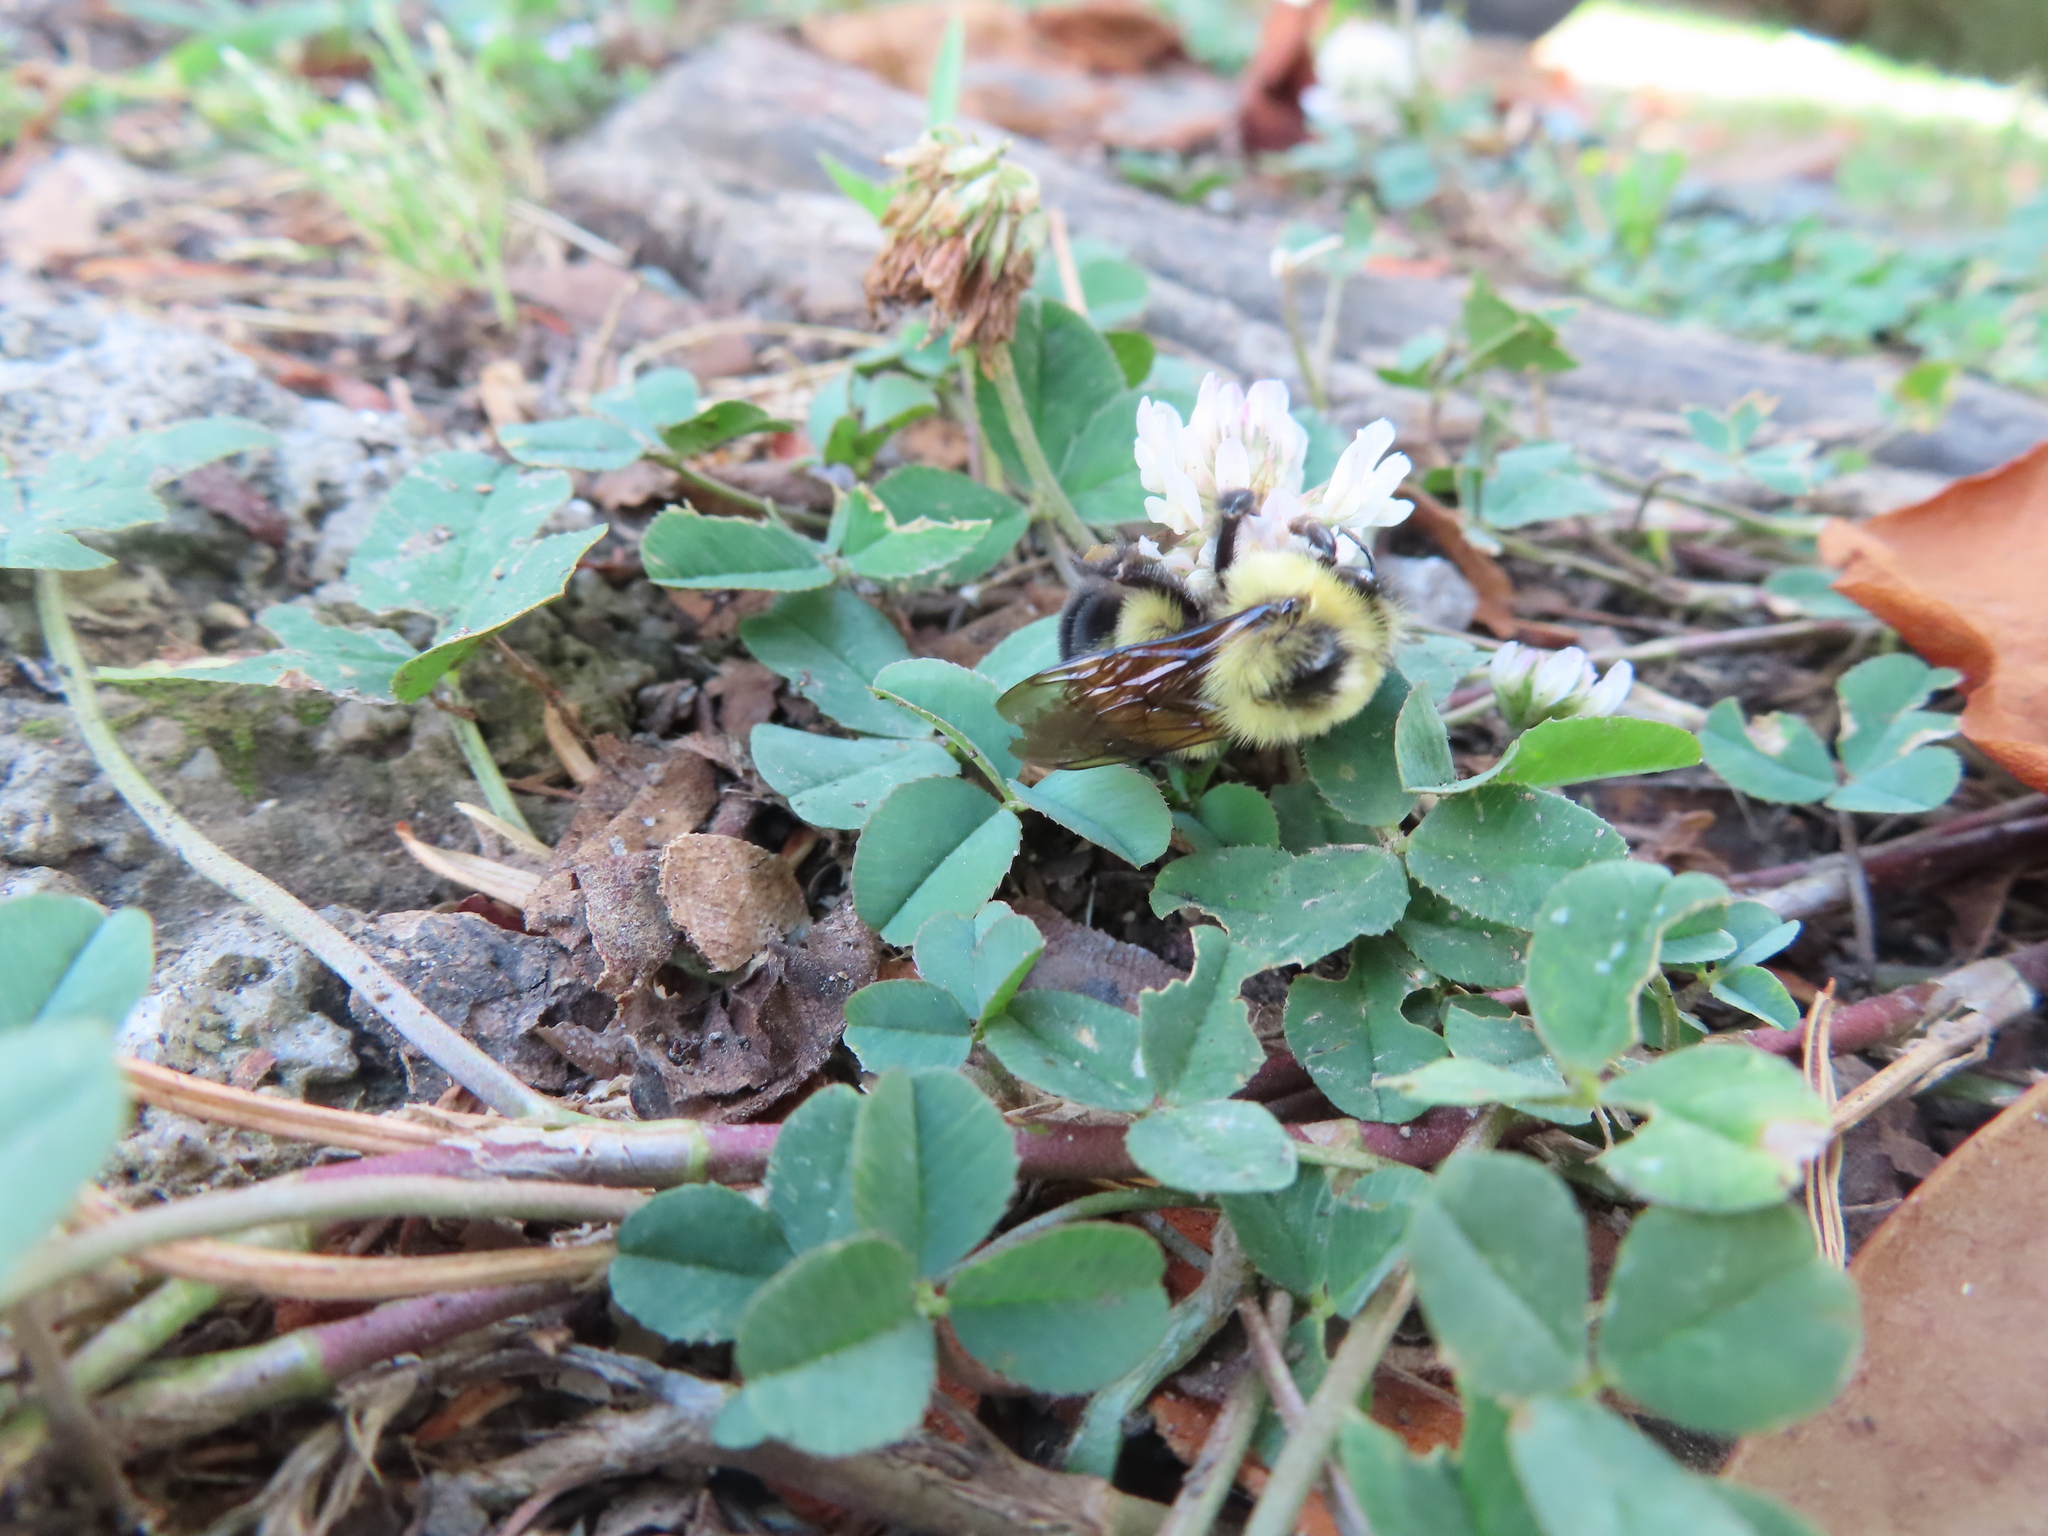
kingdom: Animalia
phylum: Arthropoda
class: Insecta
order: Hymenoptera
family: Apidae
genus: Bombus
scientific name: Bombus bimaculatus
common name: Two-spotted bumble bee
